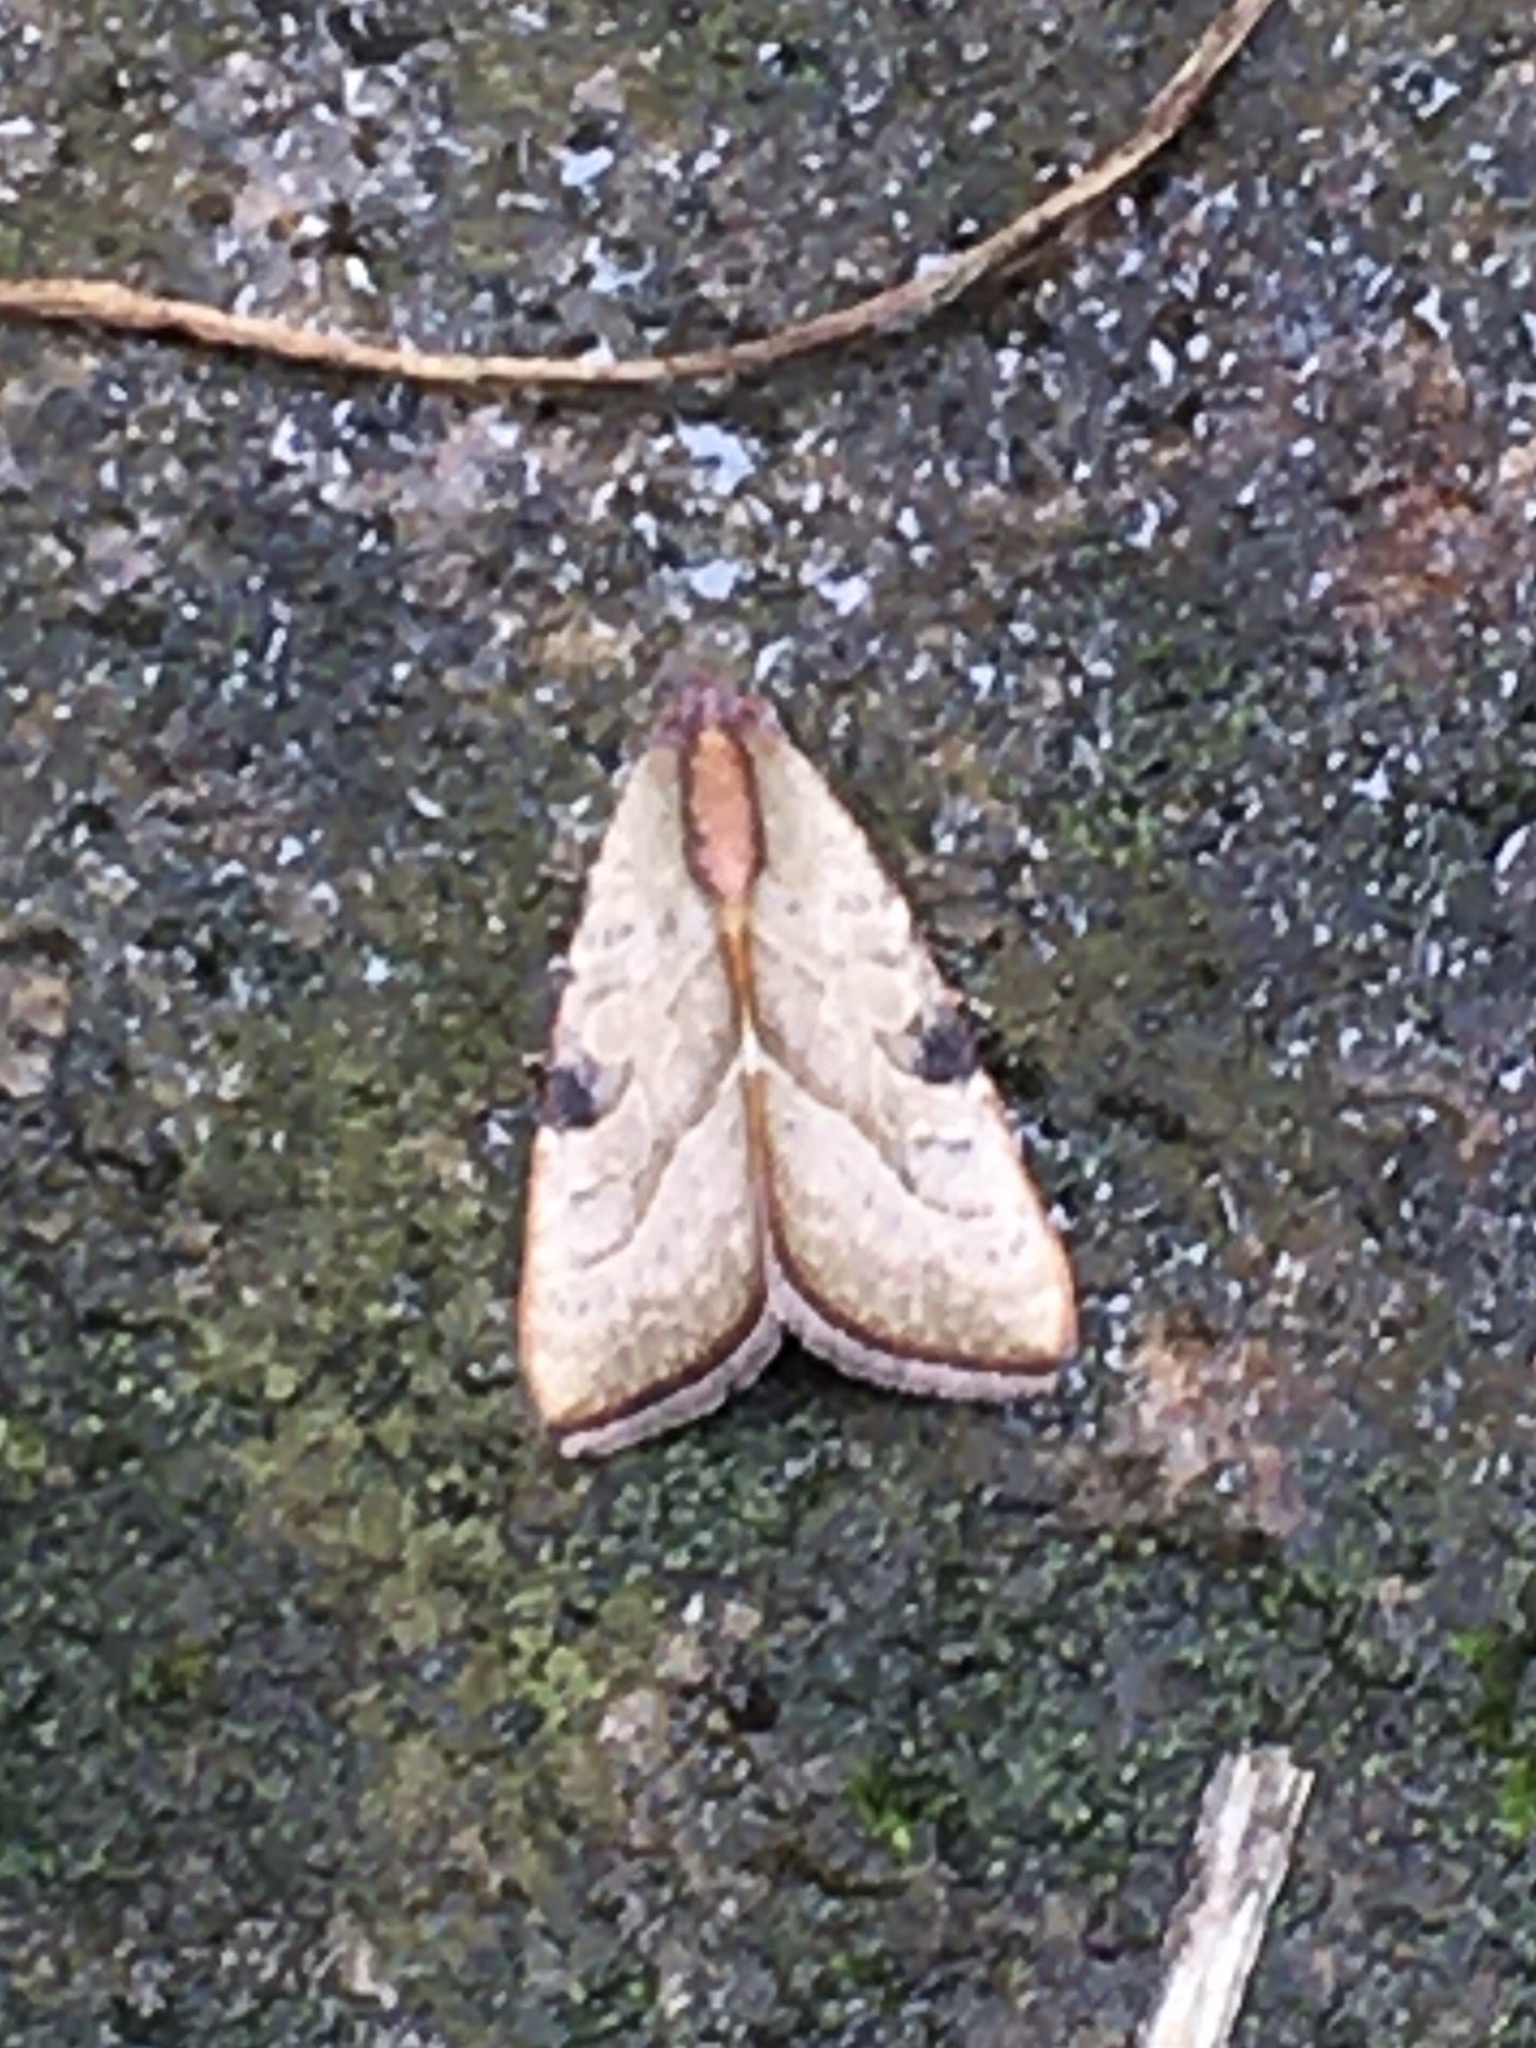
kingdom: Animalia
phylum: Arthropoda
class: Insecta
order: Lepidoptera
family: Noctuidae
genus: Galgula
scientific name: Galgula partita
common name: Wedgeling
